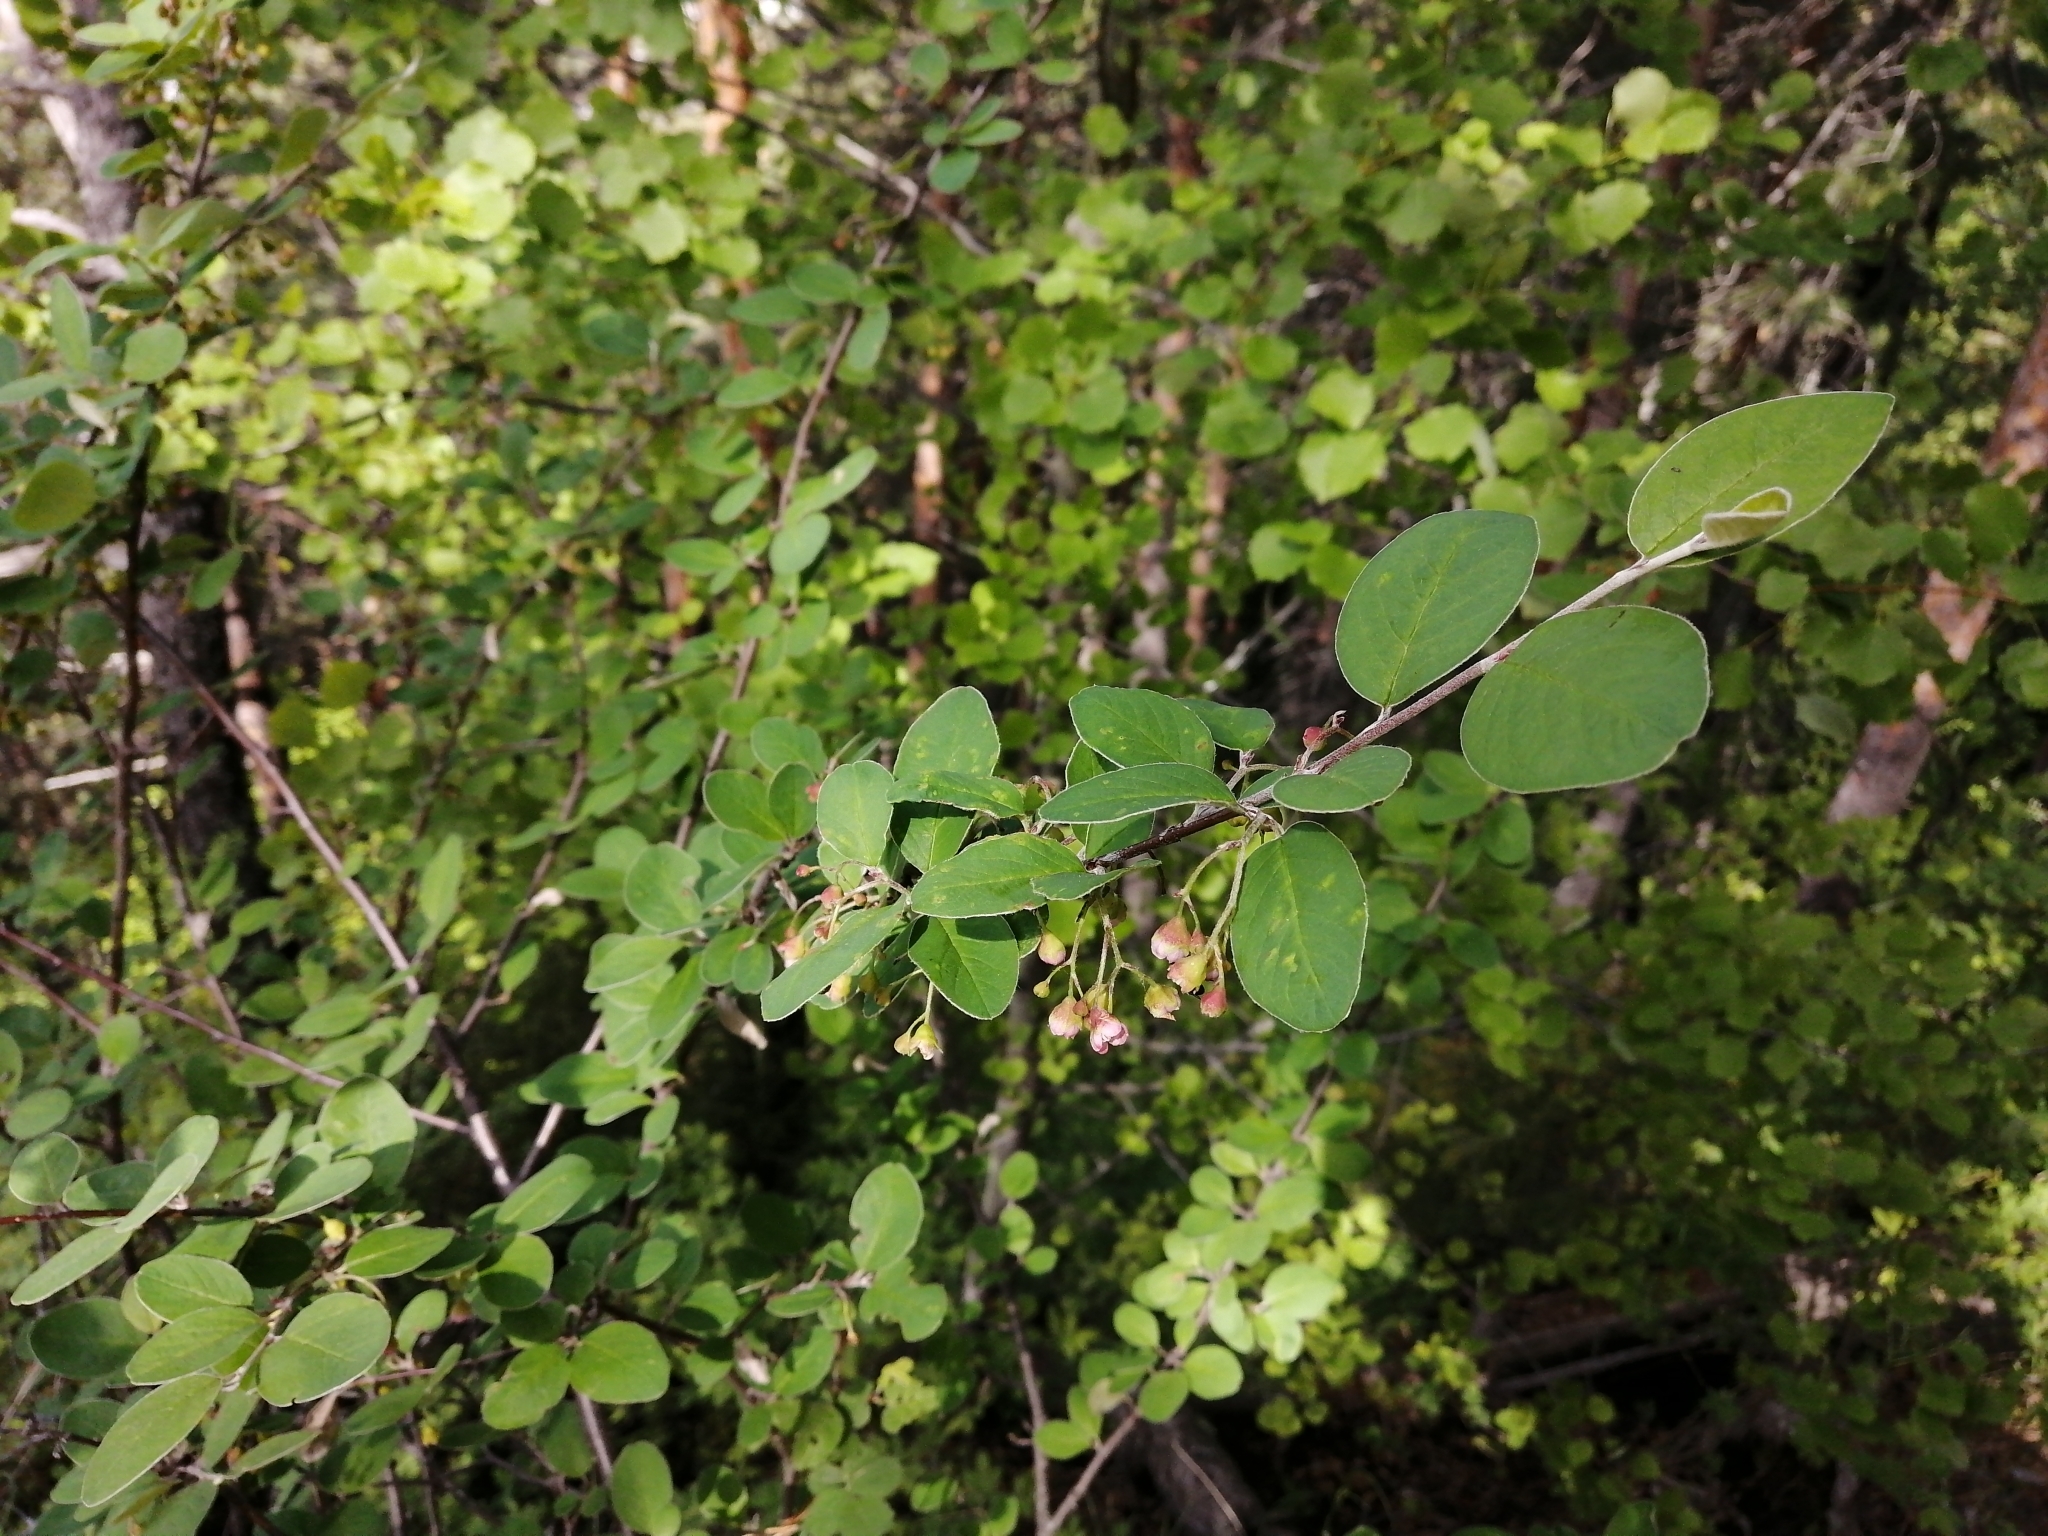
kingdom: Plantae
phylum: Tracheophyta
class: Magnoliopsida
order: Rosales
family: Rosaceae
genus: Cotoneaster
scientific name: Cotoneaster melanocarpus
